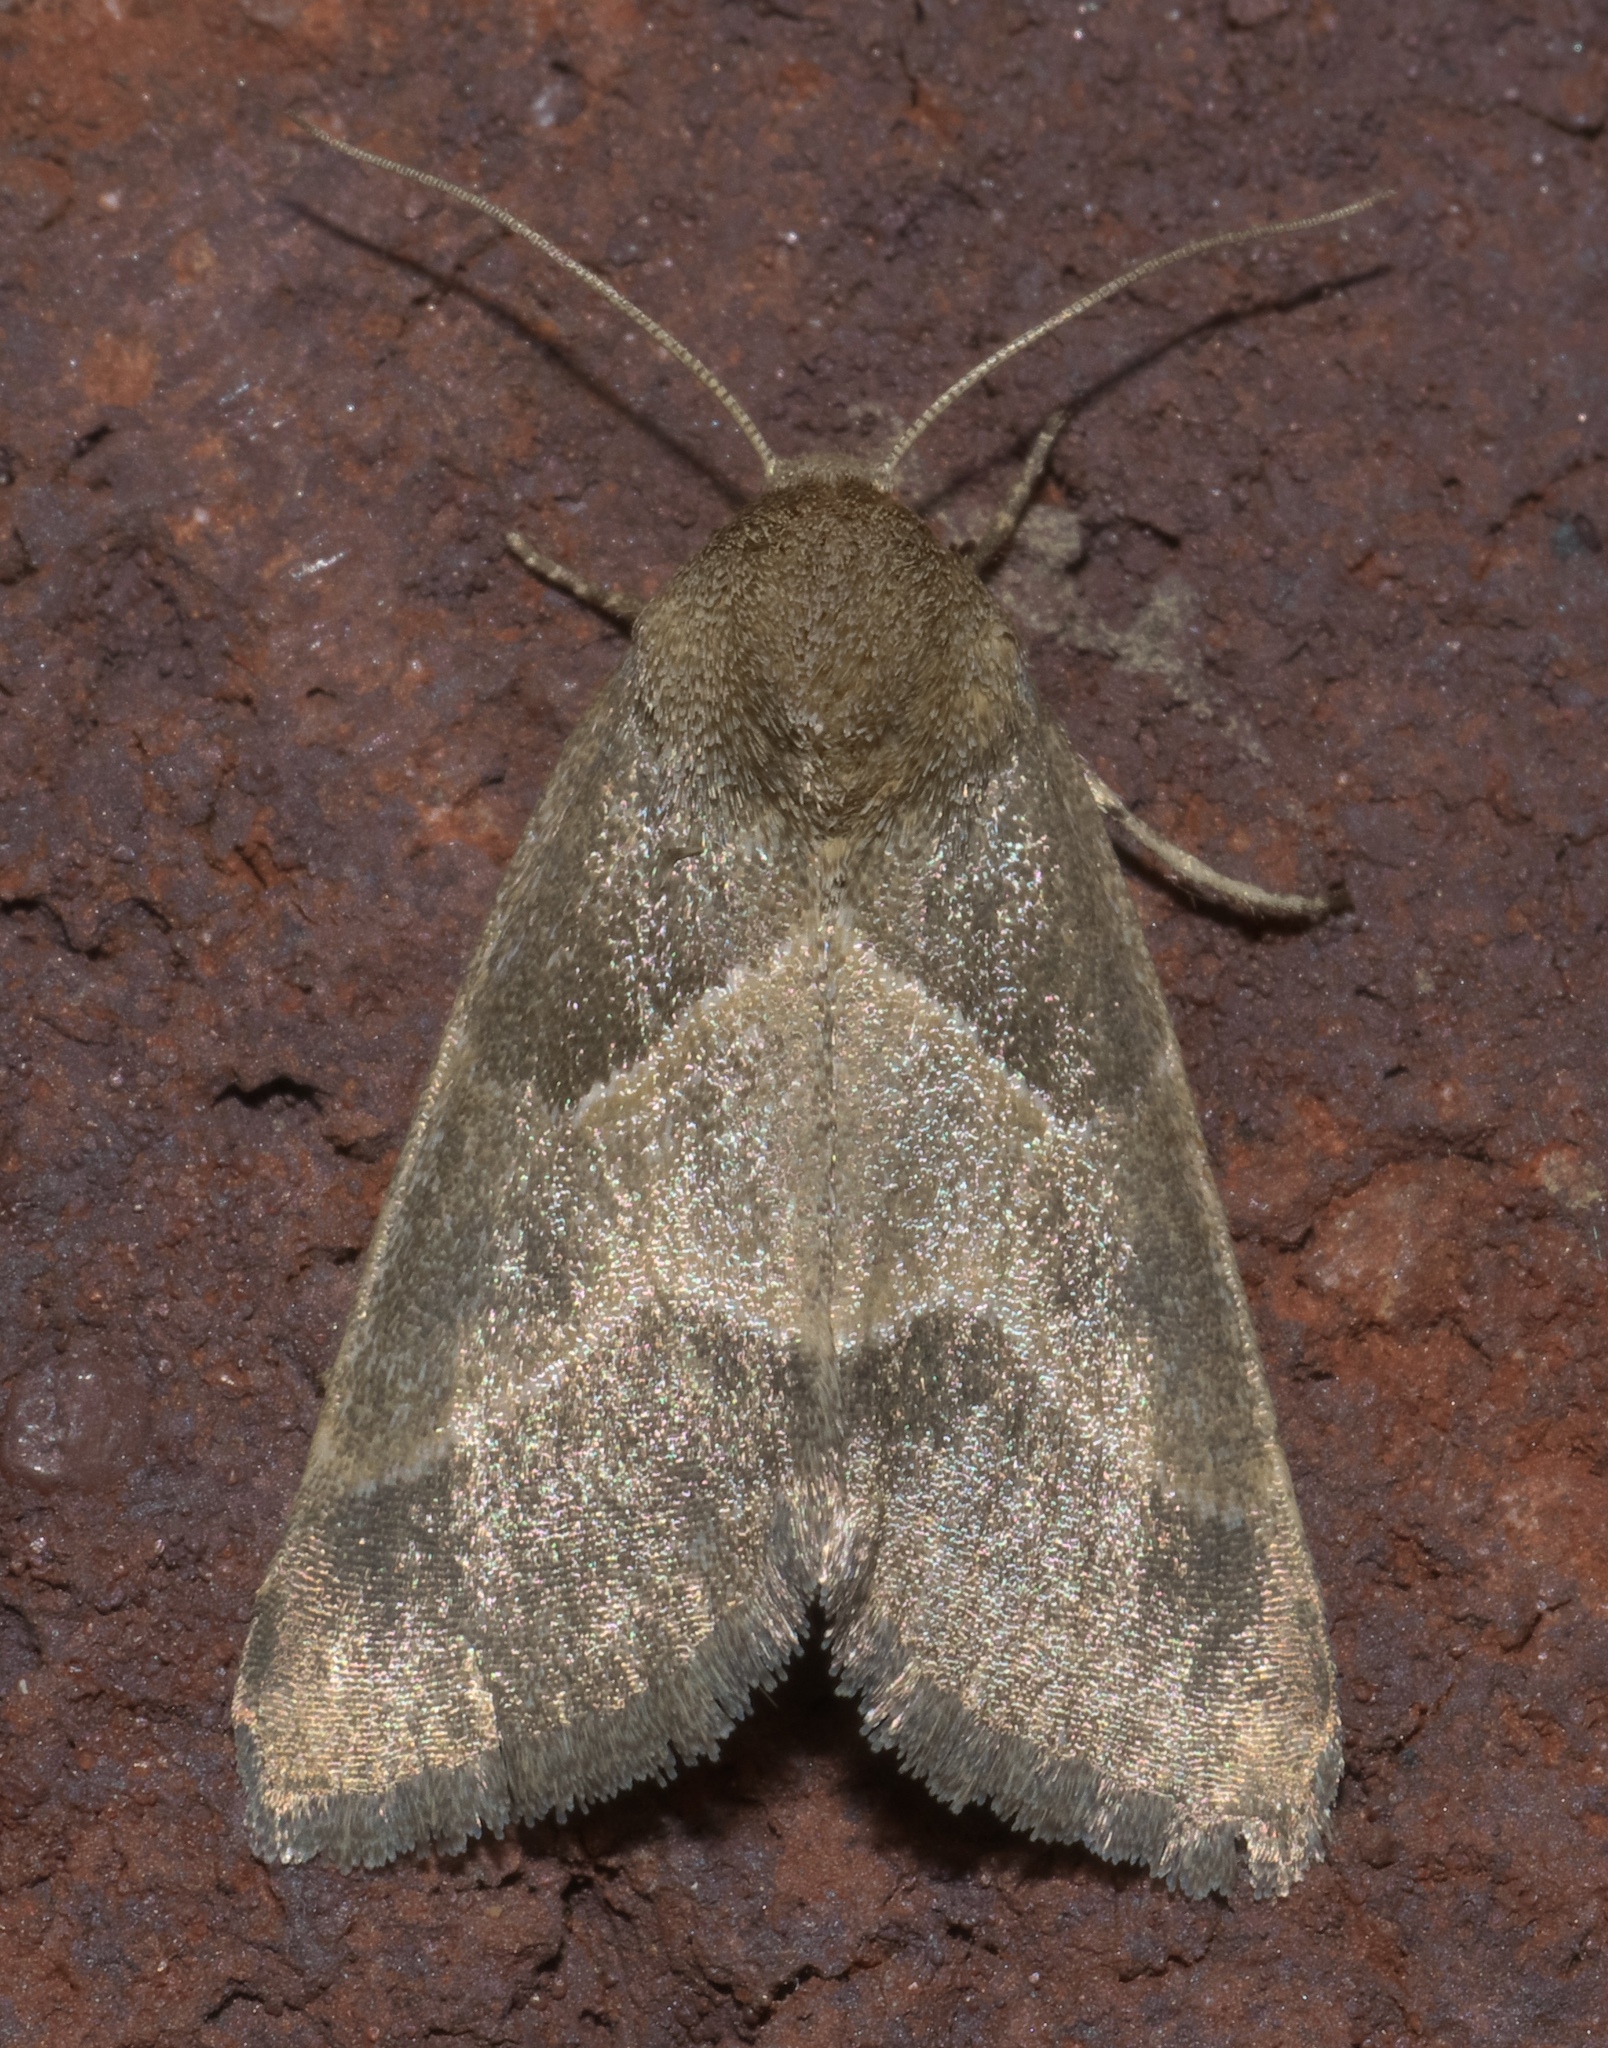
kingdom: Animalia
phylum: Arthropoda
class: Insecta
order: Lepidoptera
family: Noctuidae
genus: Schinia
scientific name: Schinia gracilenta
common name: Slender flower moth
